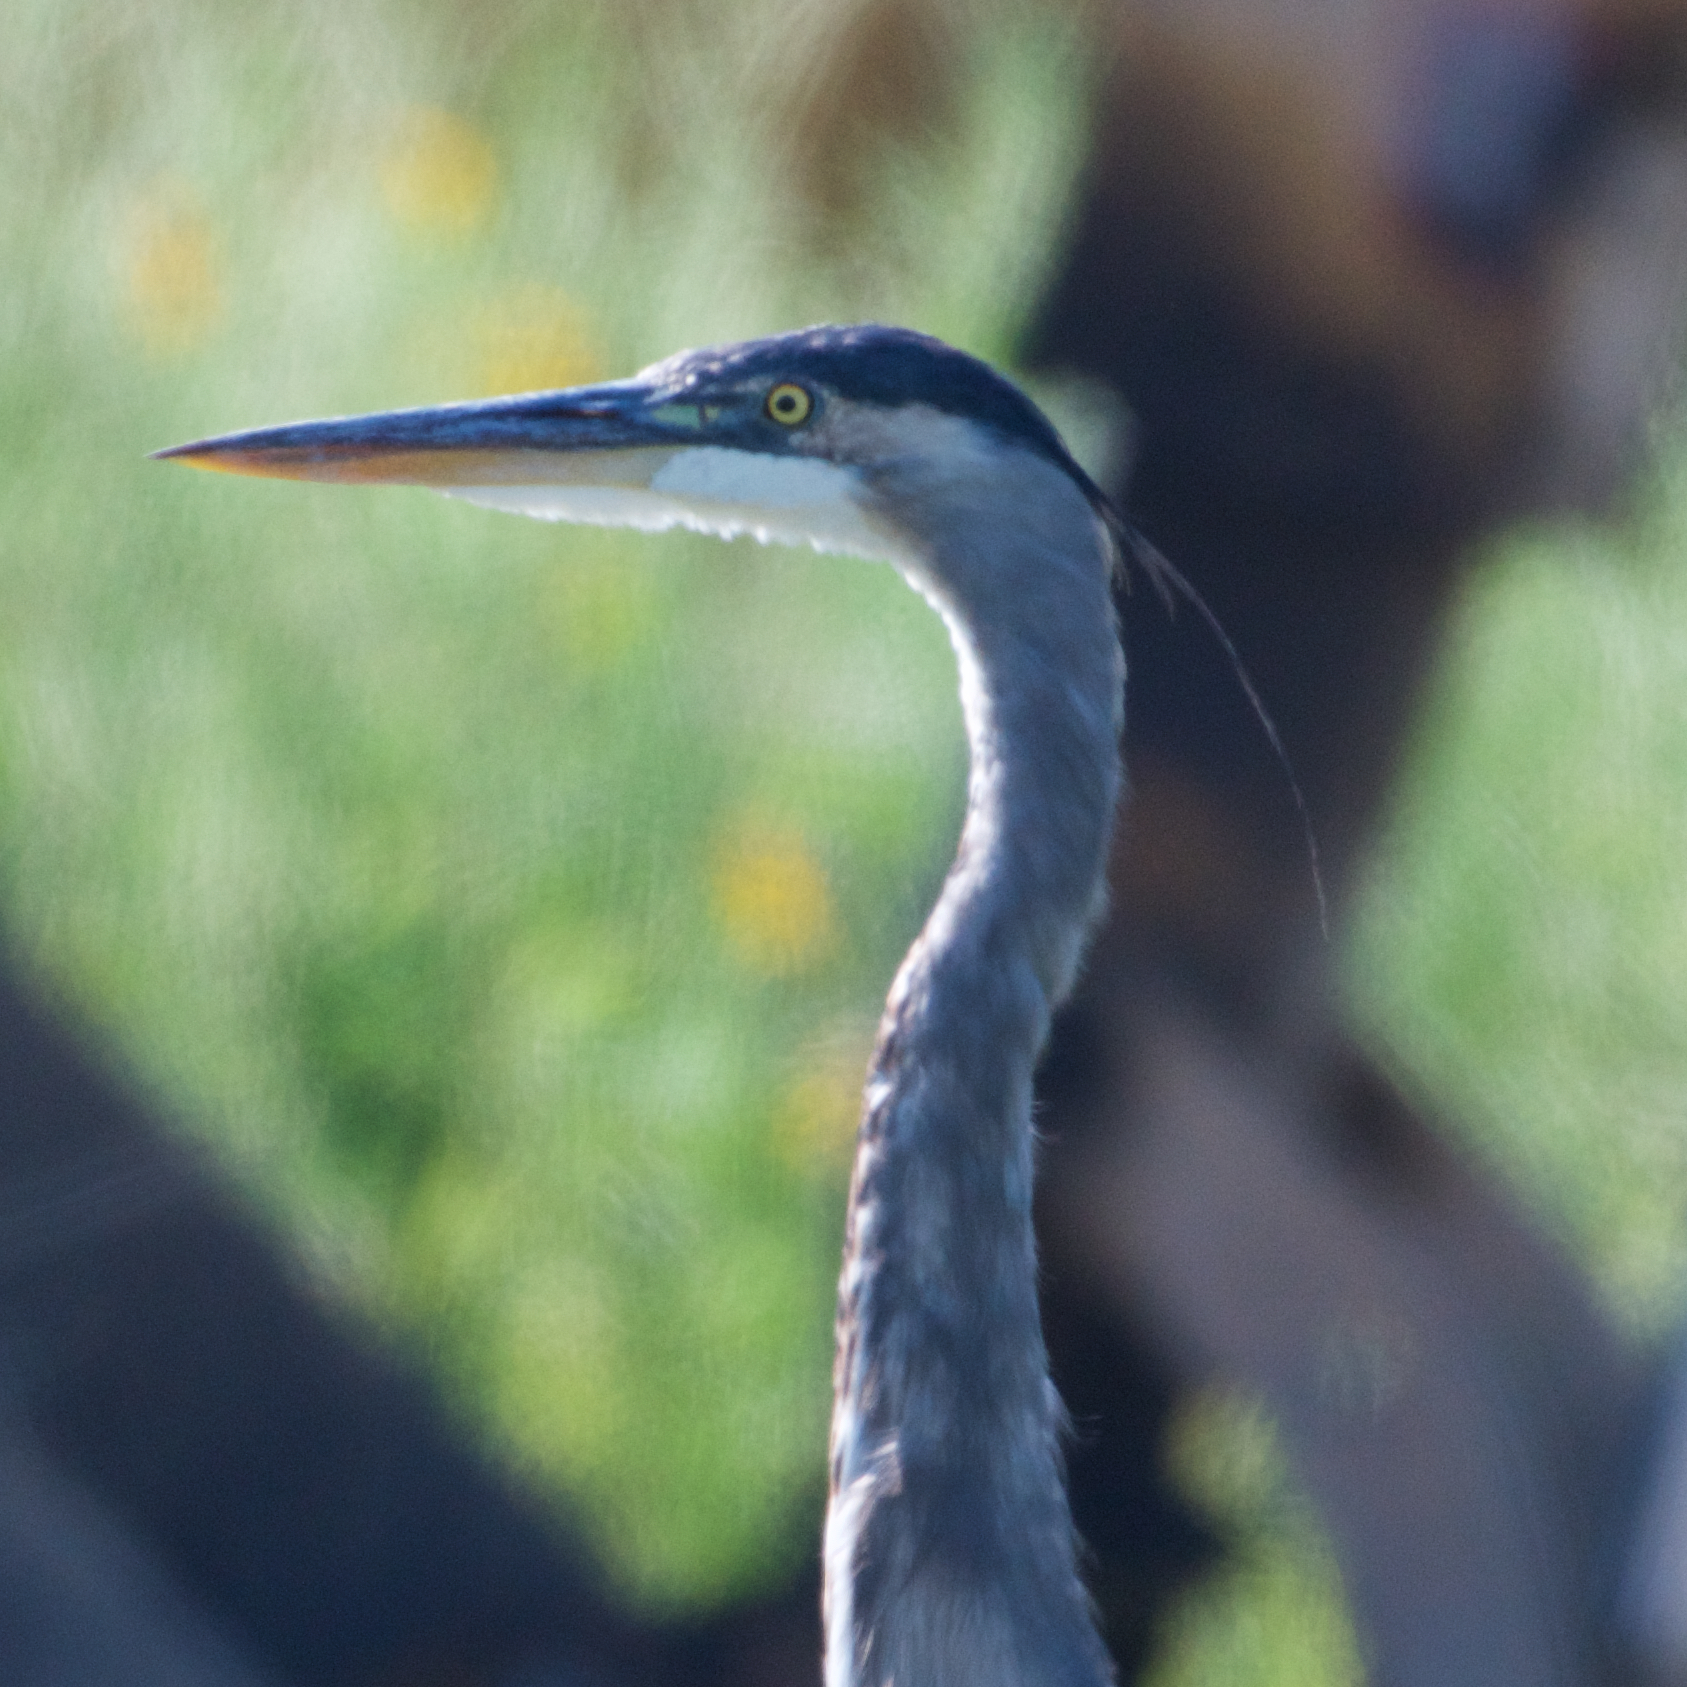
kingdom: Animalia
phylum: Chordata
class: Aves
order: Pelecaniformes
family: Ardeidae
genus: Ardea
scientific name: Ardea herodias
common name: Great blue heron
